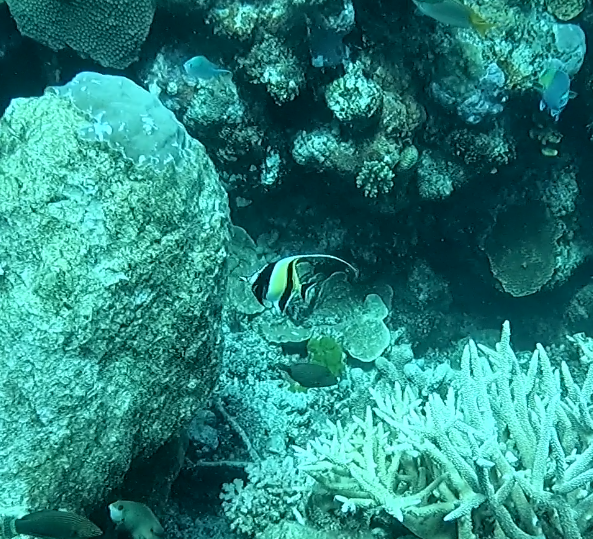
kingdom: Animalia
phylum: Chordata
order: Perciformes
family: Zanclidae
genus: Zanclus
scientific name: Zanclus cornutus
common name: Moorish idol
